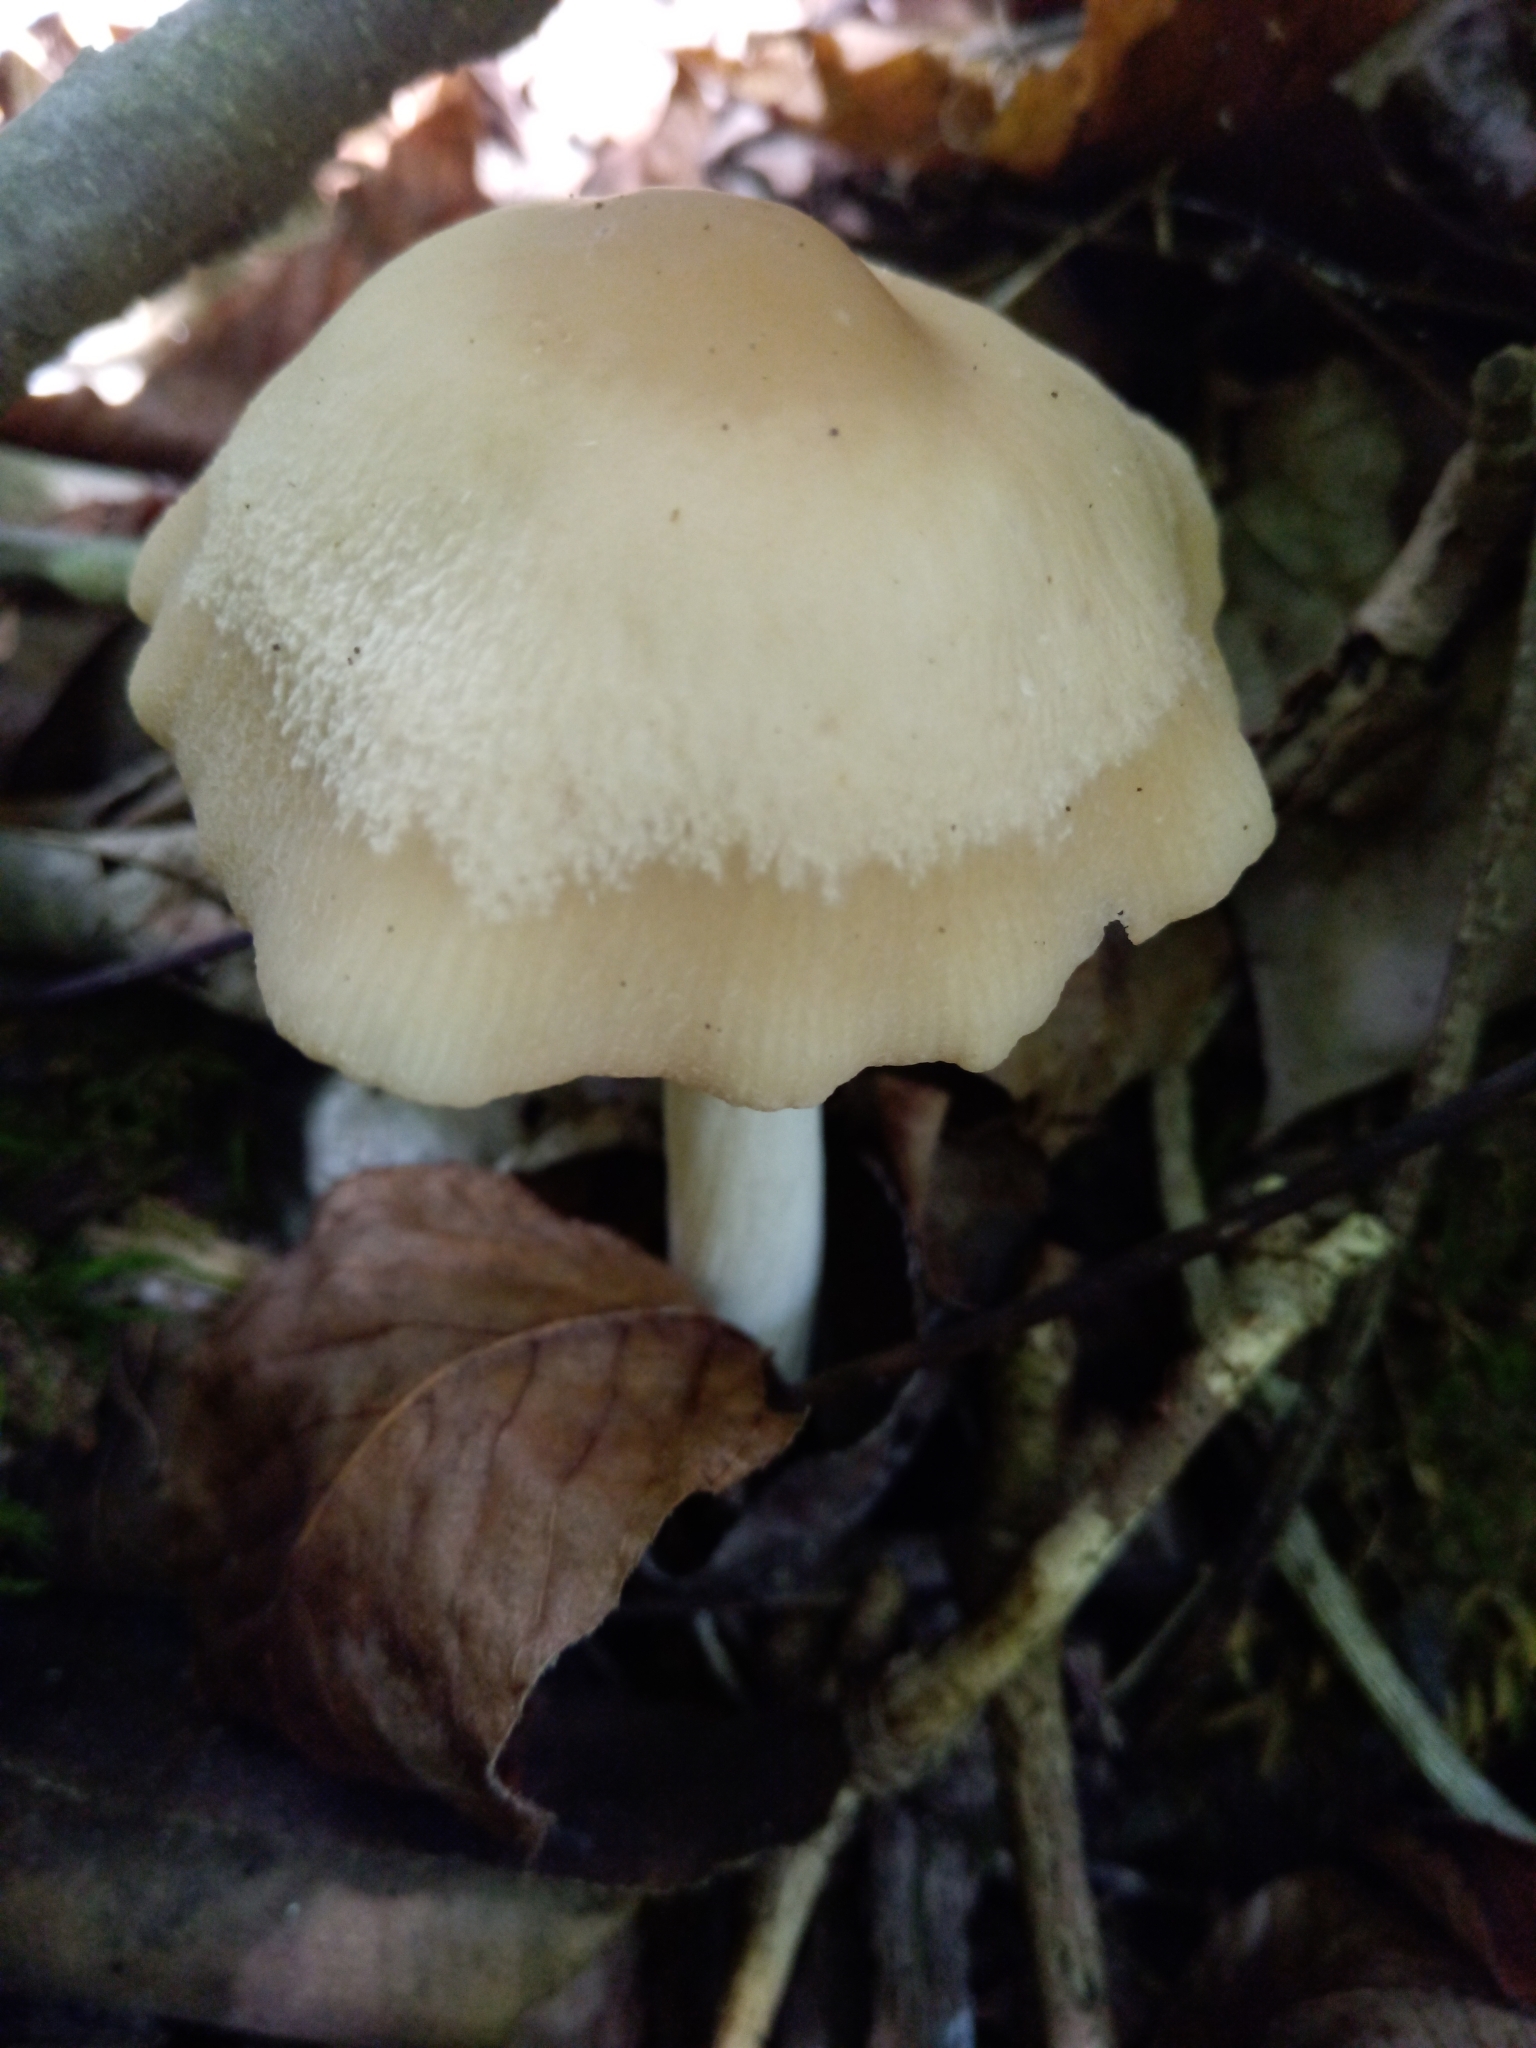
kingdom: Fungi
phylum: Basidiomycota
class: Agaricomycetes
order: Agaricales
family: Marasmiaceae
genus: Marasmius
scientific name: Marasmius nigrodiscus
